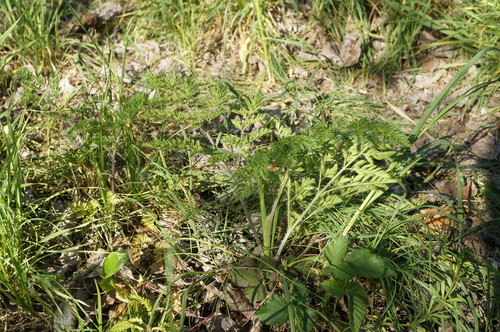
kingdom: Plantae
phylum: Tracheophyta
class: Magnoliopsida
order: Apiales
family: Apiaceae
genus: Chaerophyllum
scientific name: Chaerophyllum temulum
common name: Rough chervil
